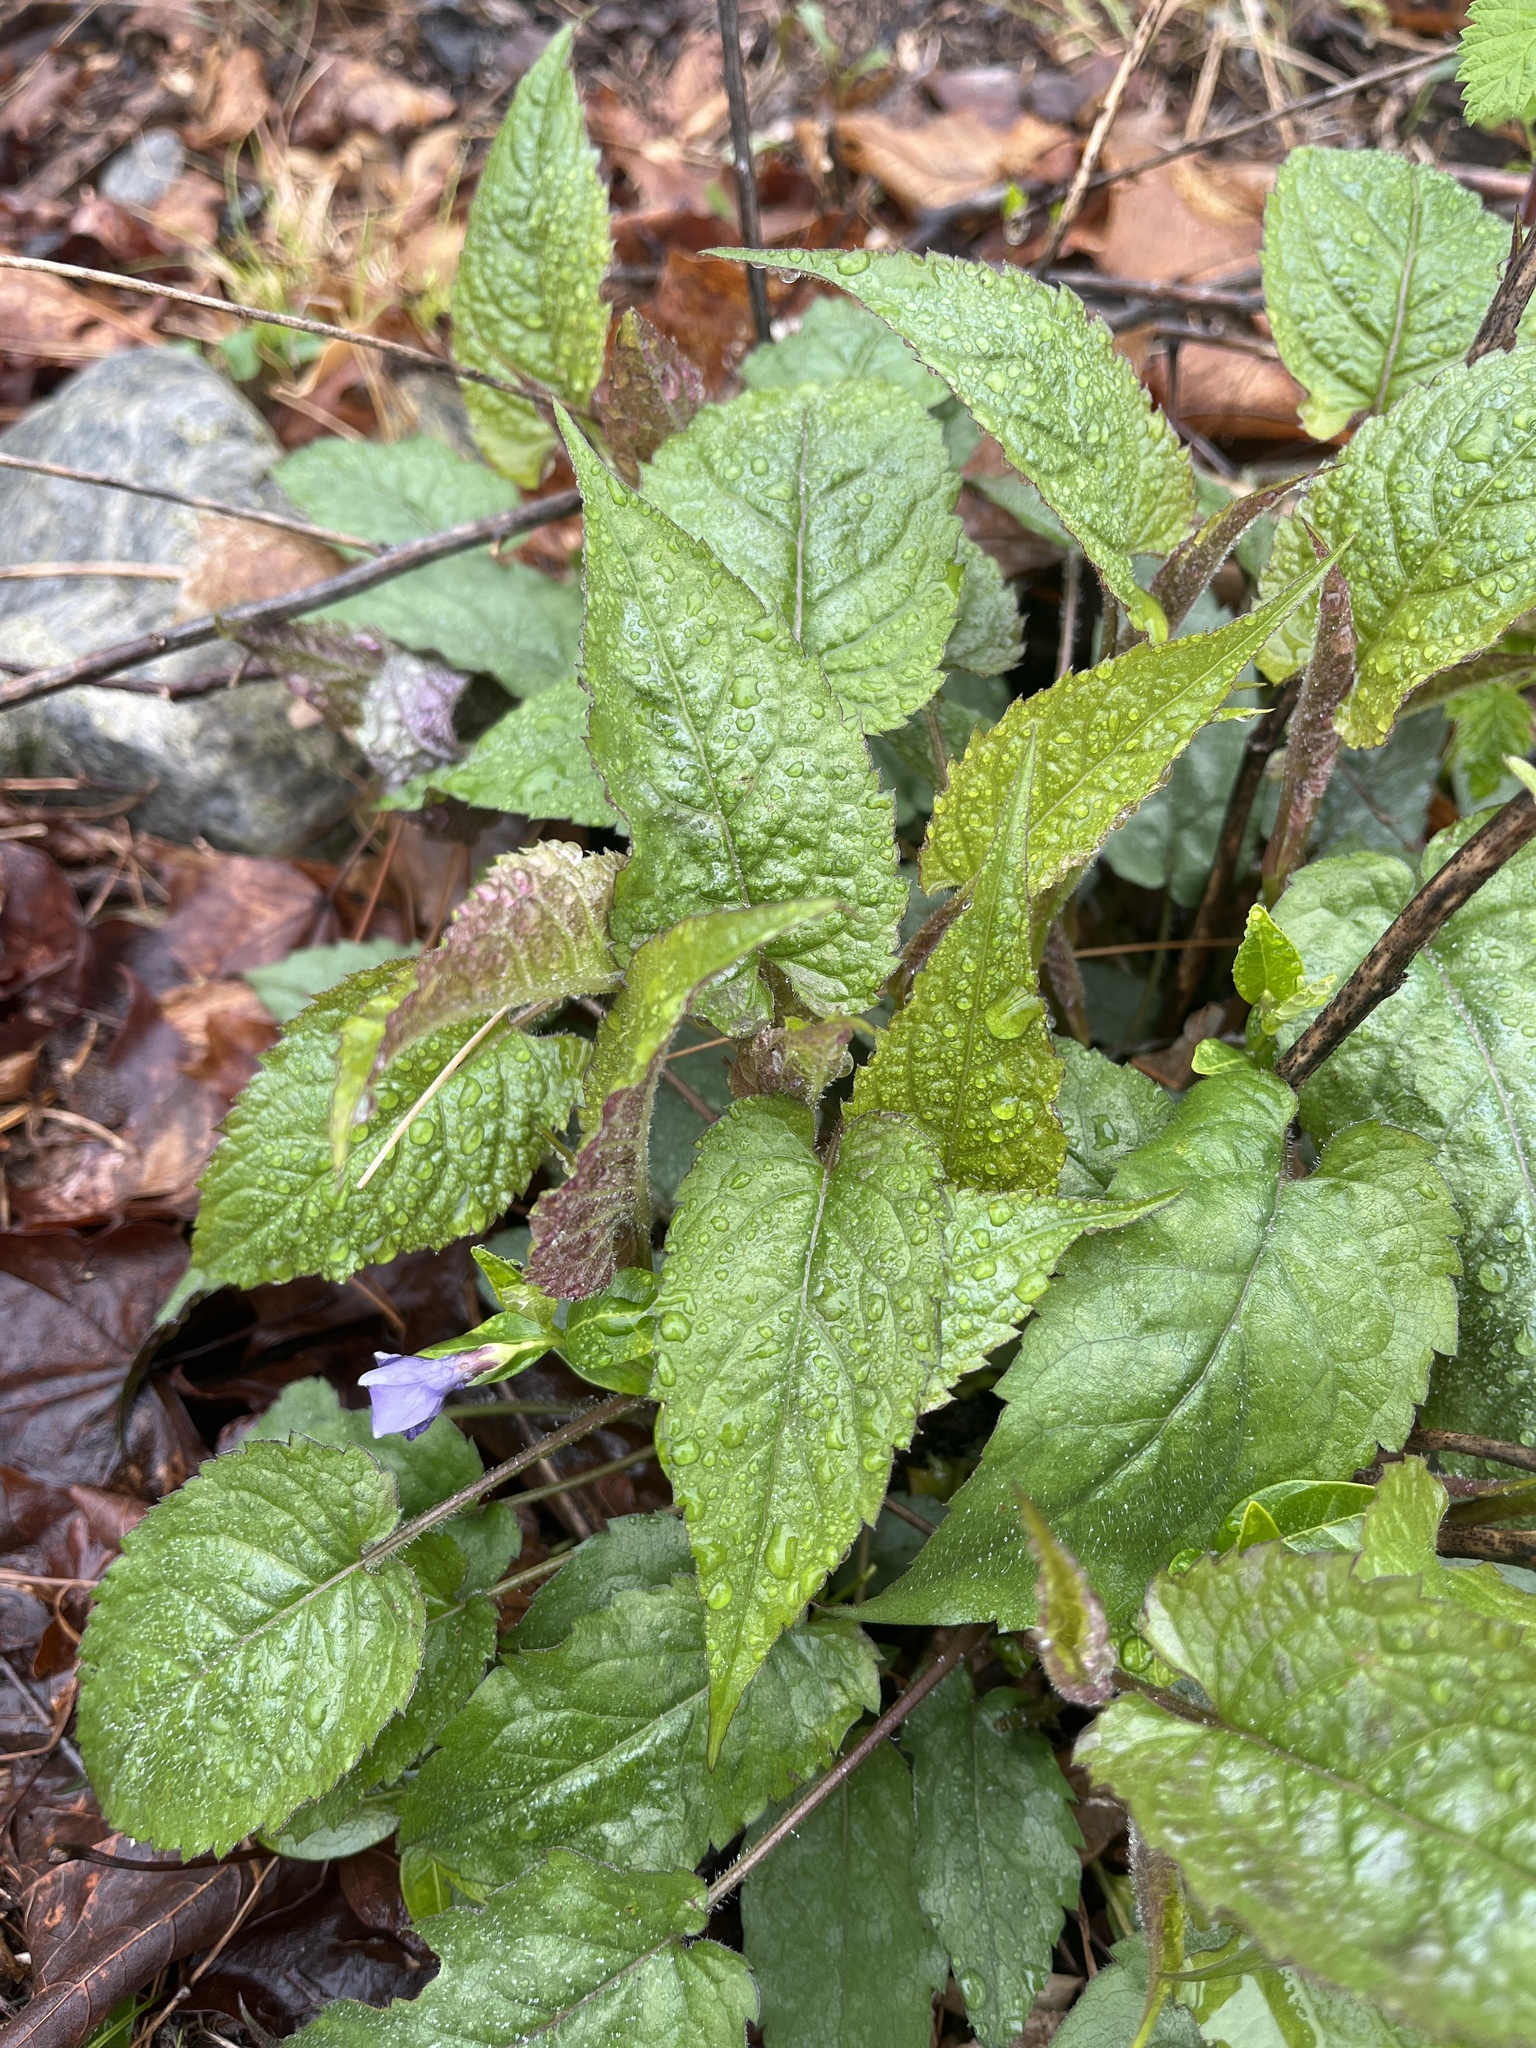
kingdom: Plantae
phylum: Tracheophyta
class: Magnoliopsida
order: Asterales
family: Asteraceae
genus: Eurybia
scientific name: Eurybia divaricata
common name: White wood aster
